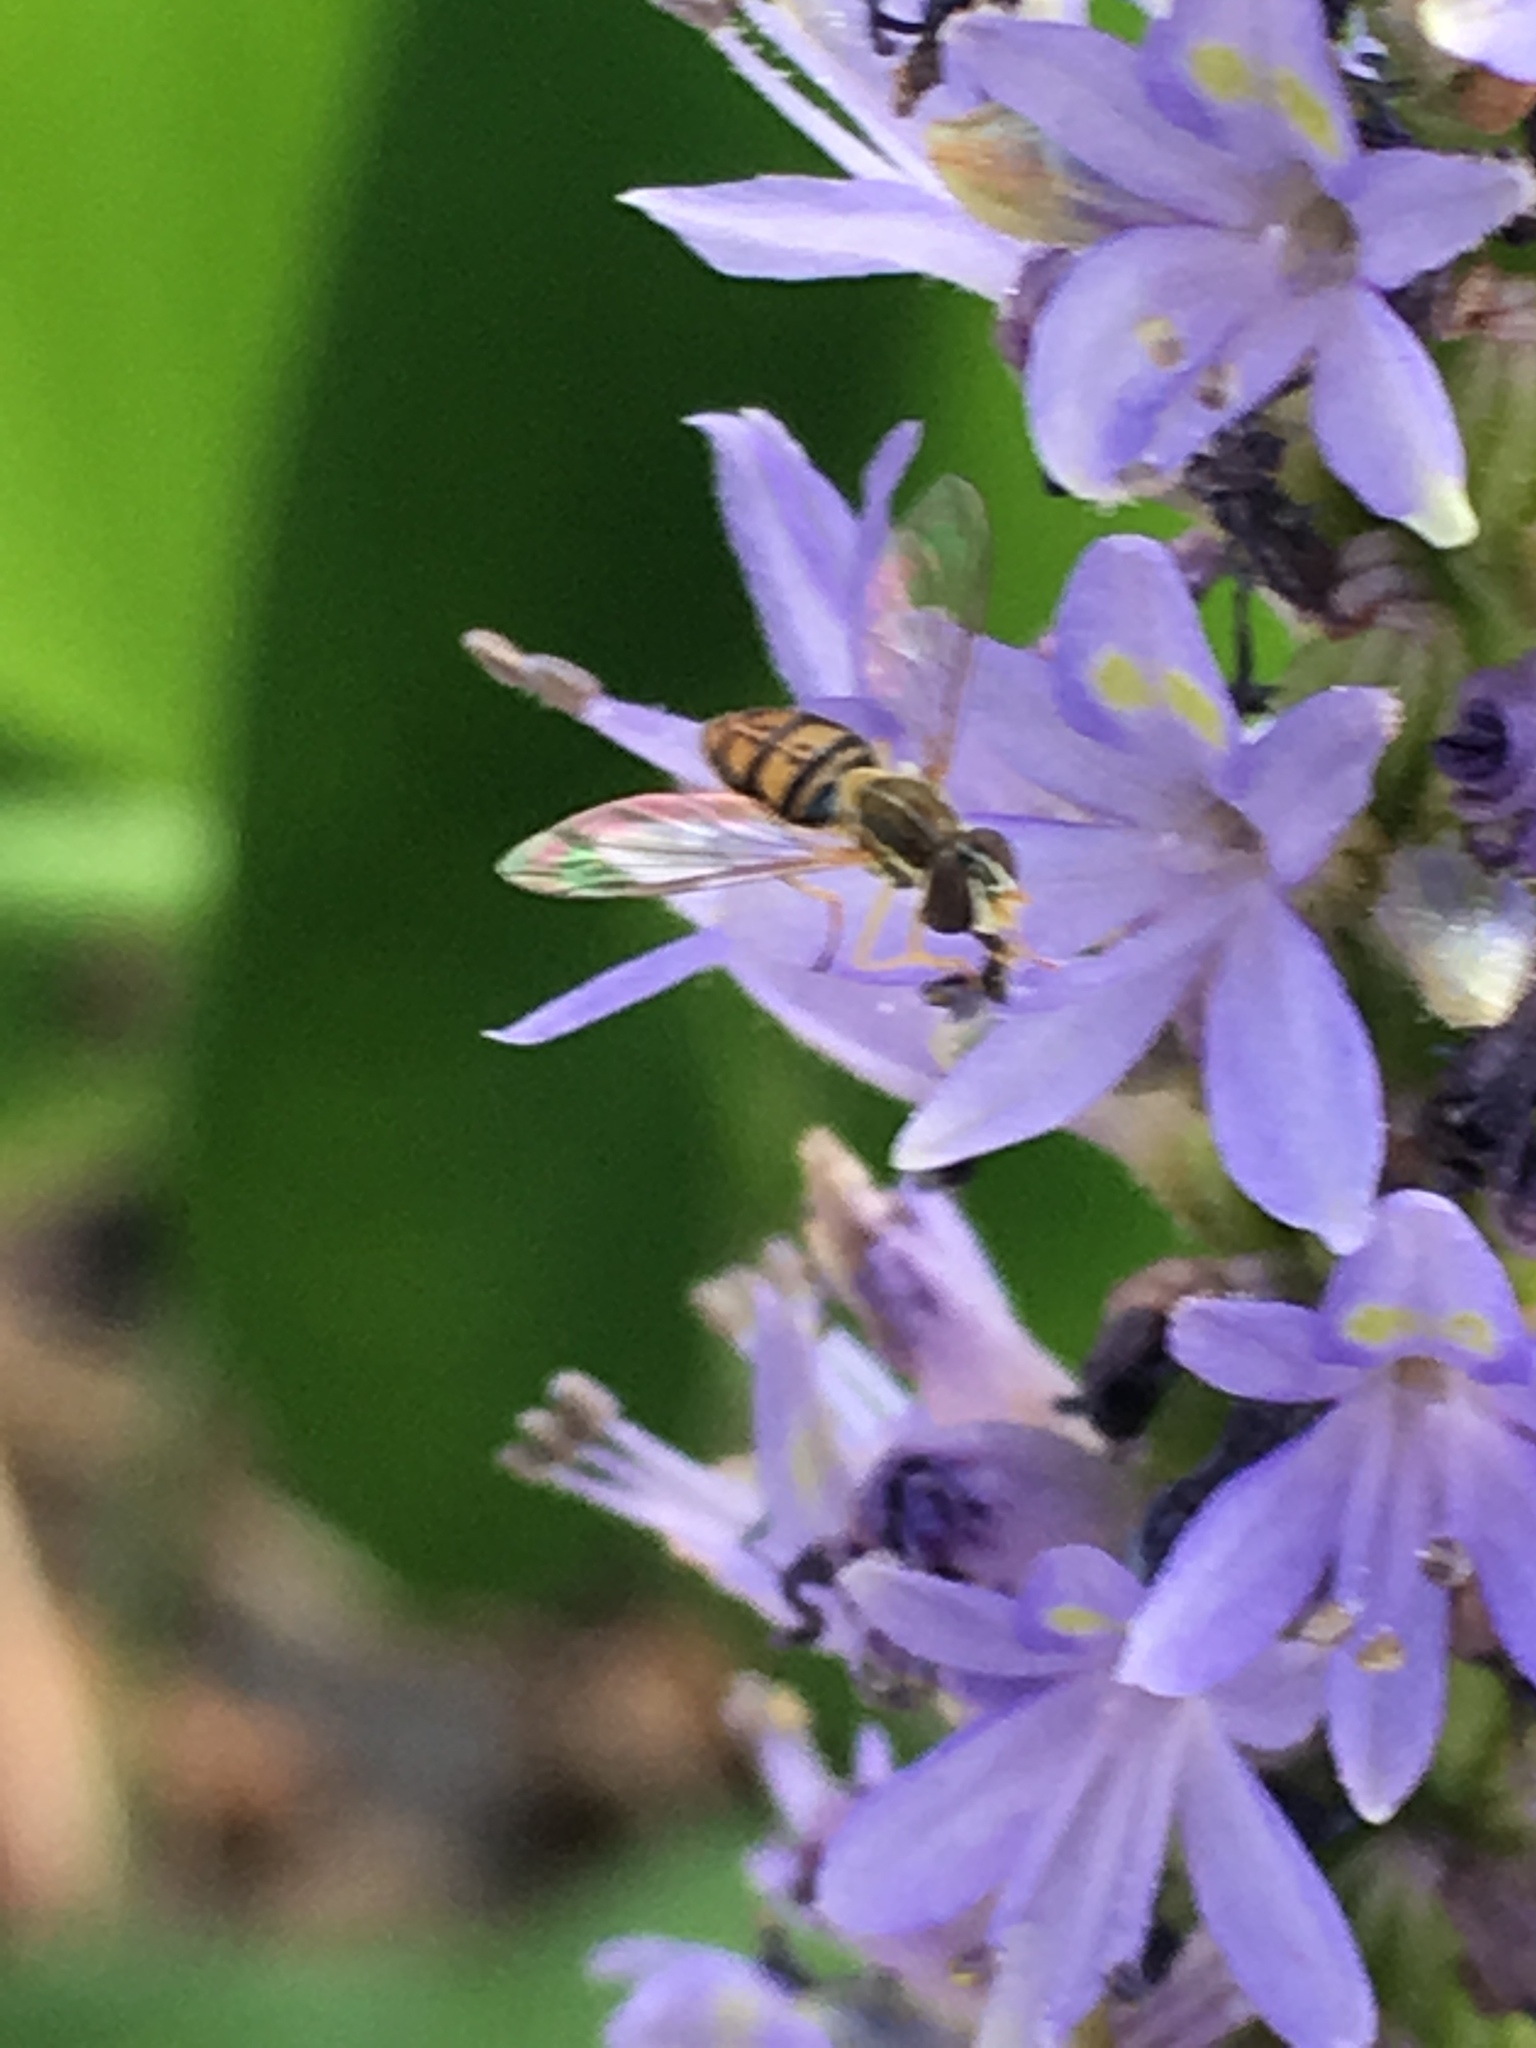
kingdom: Animalia
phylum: Arthropoda
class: Insecta
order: Diptera
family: Syrphidae
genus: Toxomerus
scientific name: Toxomerus marginatus
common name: Syrphid fly
